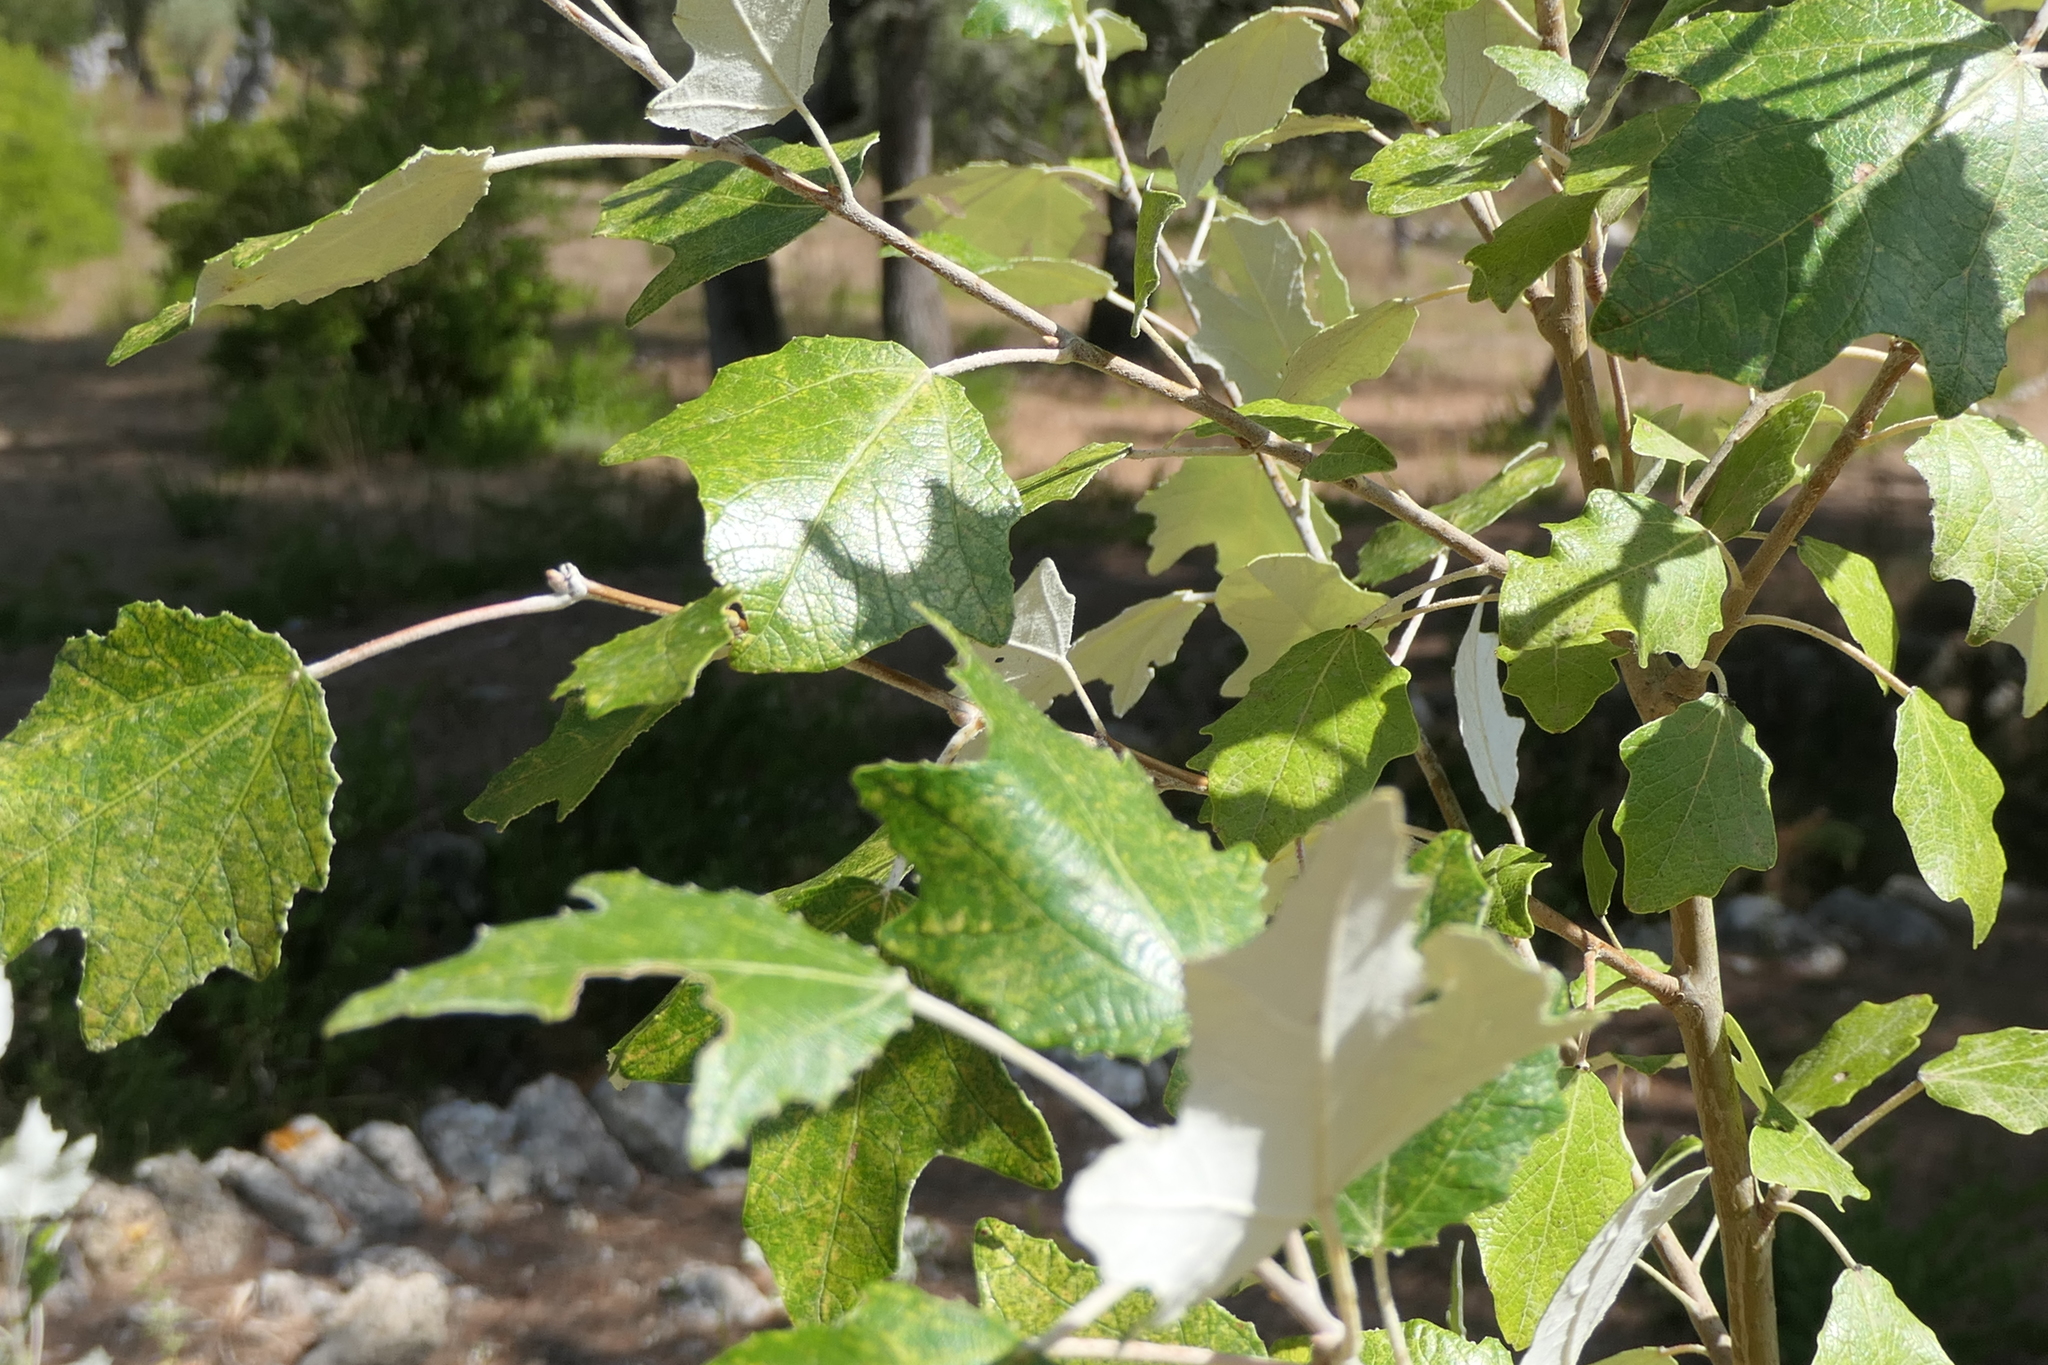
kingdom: Plantae
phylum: Tracheophyta
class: Magnoliopsida
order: Malpighiales
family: Salicaceae
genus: Populus
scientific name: Populus alba
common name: White poplar
